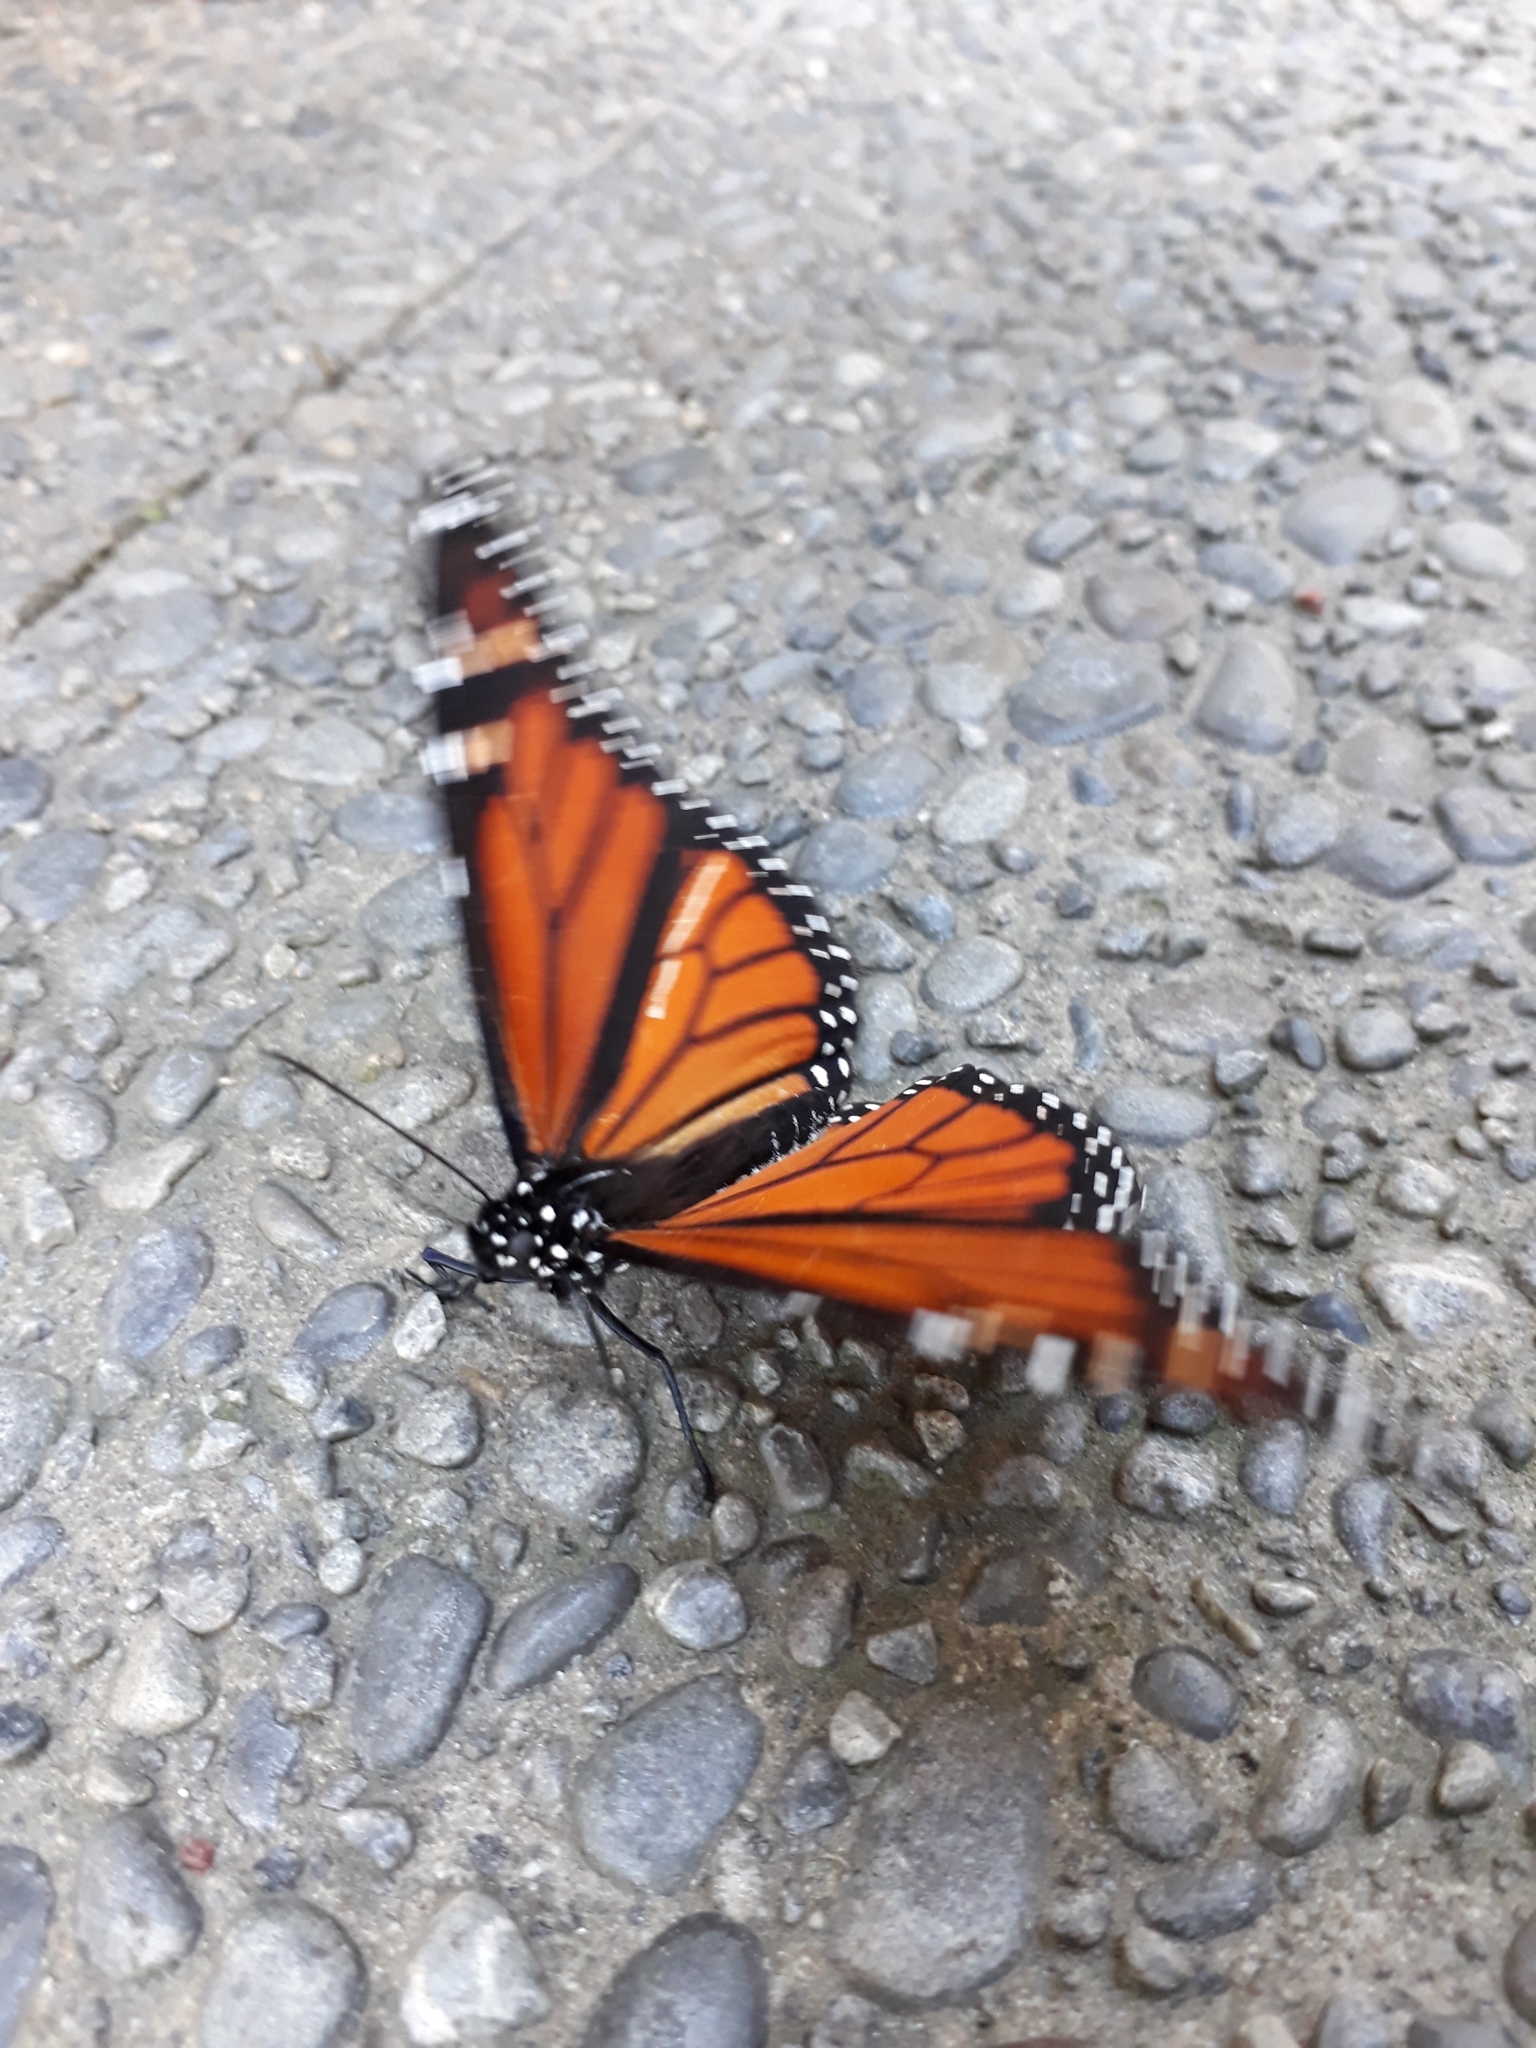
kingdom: Animalia
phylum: Arthropoda
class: Insecta
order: Lepidoptera
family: Nymphalidae
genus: Danaus
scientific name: Danaus plexippus
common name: Monarch
